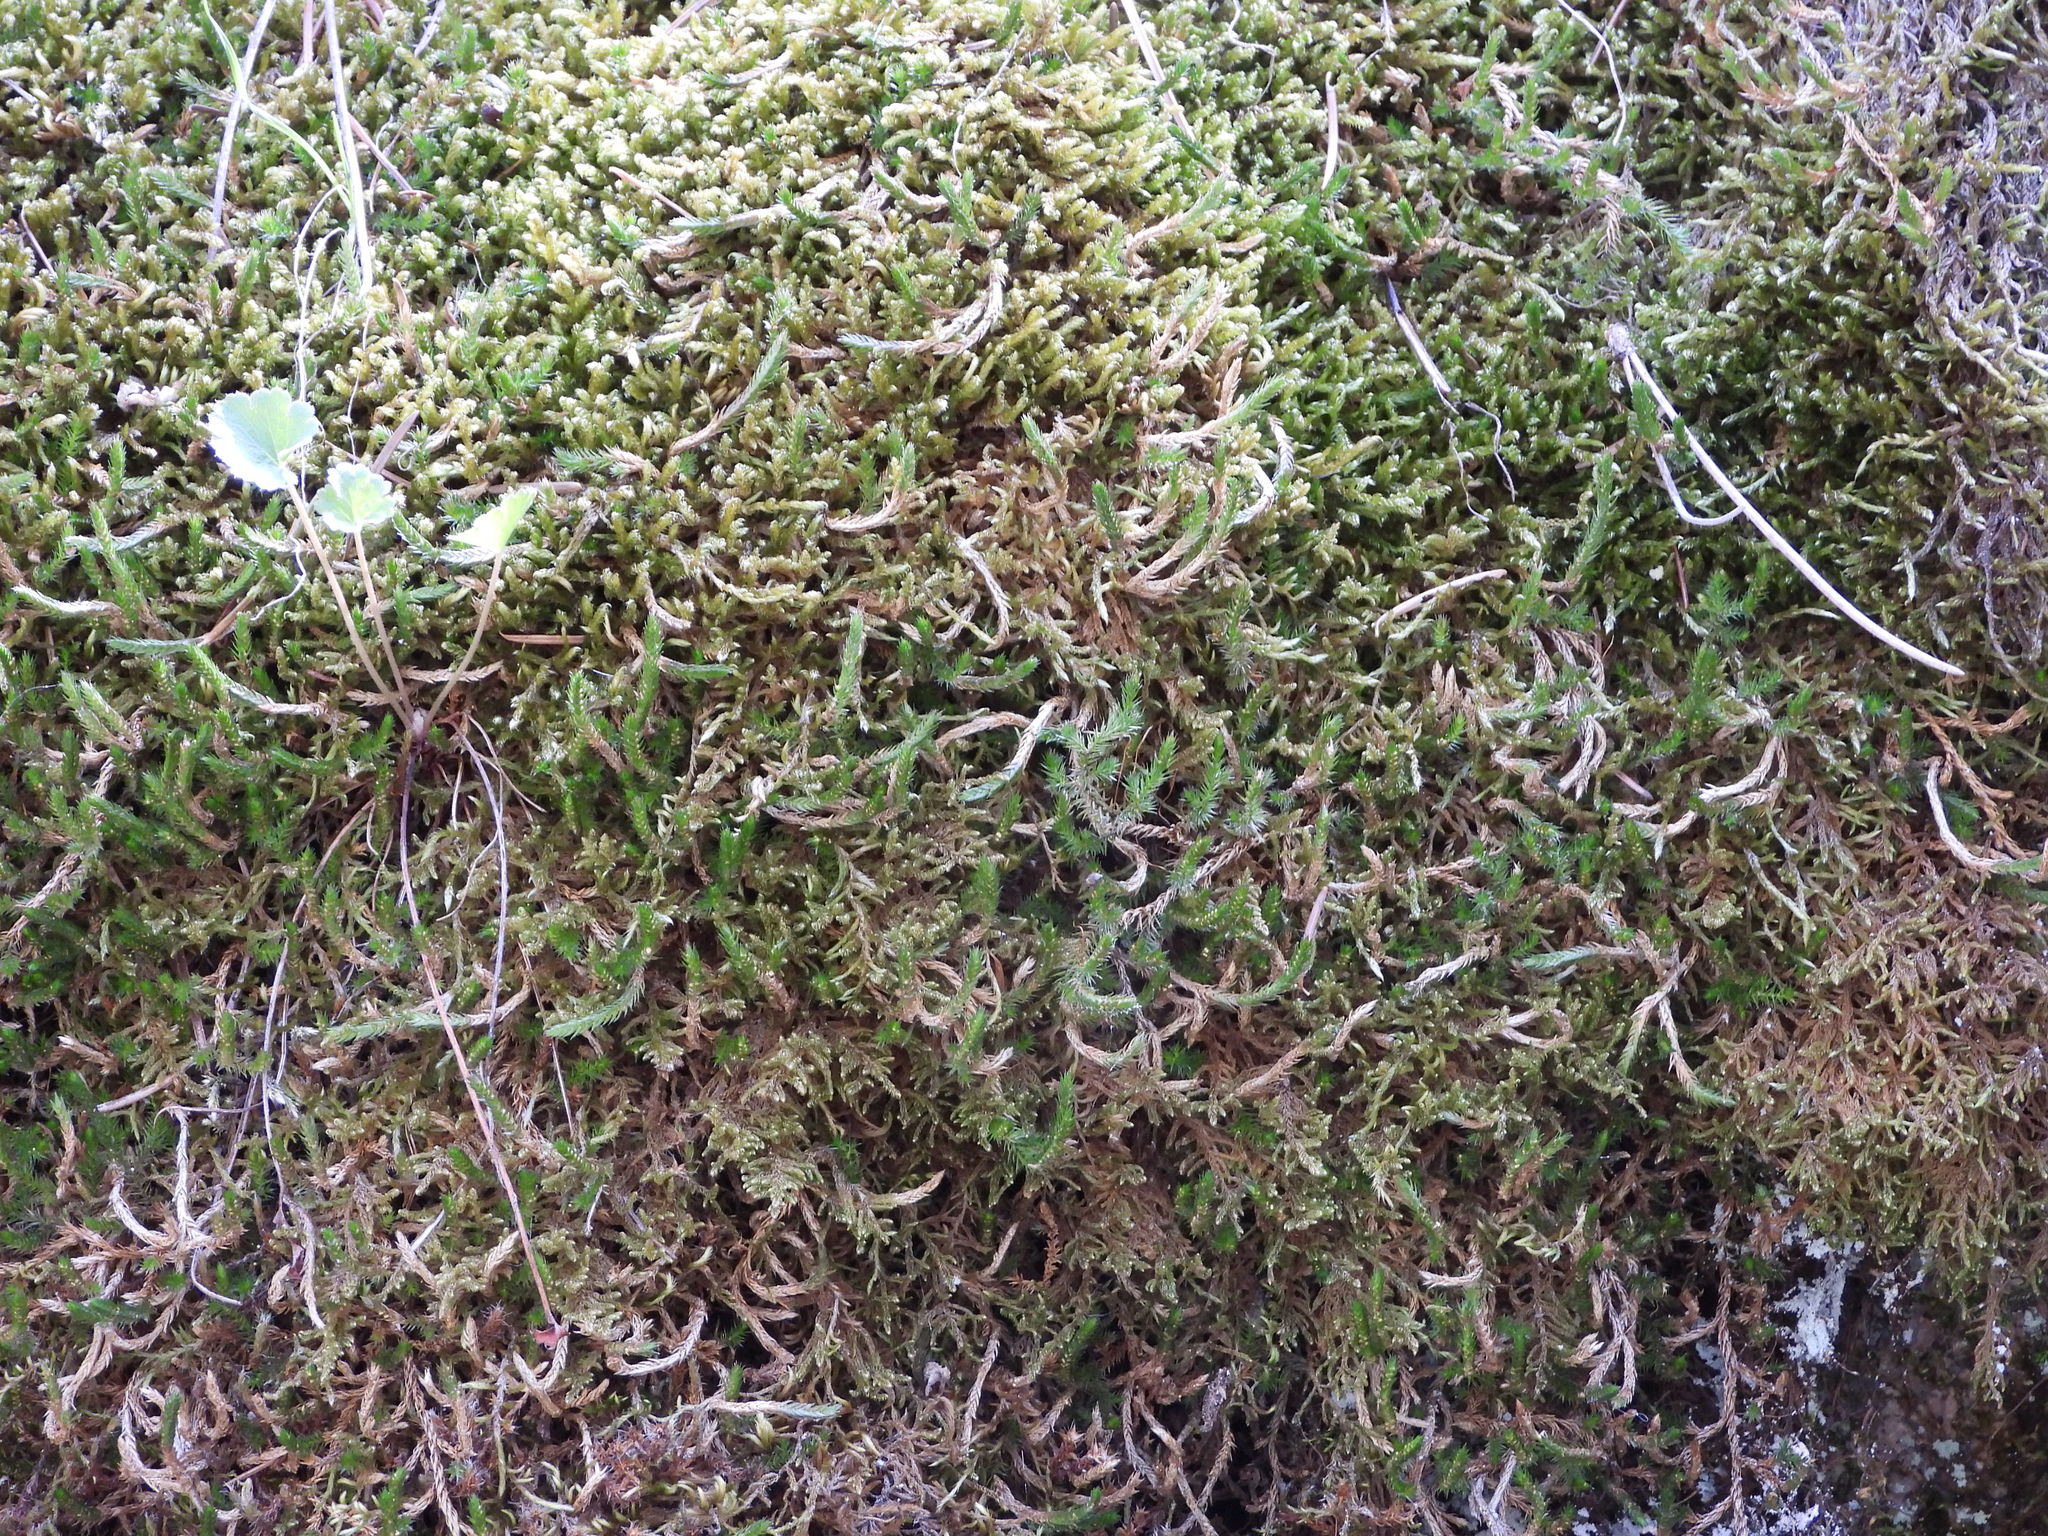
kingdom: Plantae
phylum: Tracheophyta
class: Lycopodiopsida
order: Selaginellales
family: Selaginellaceae
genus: Selaginella
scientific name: Selaginella underwoodii
